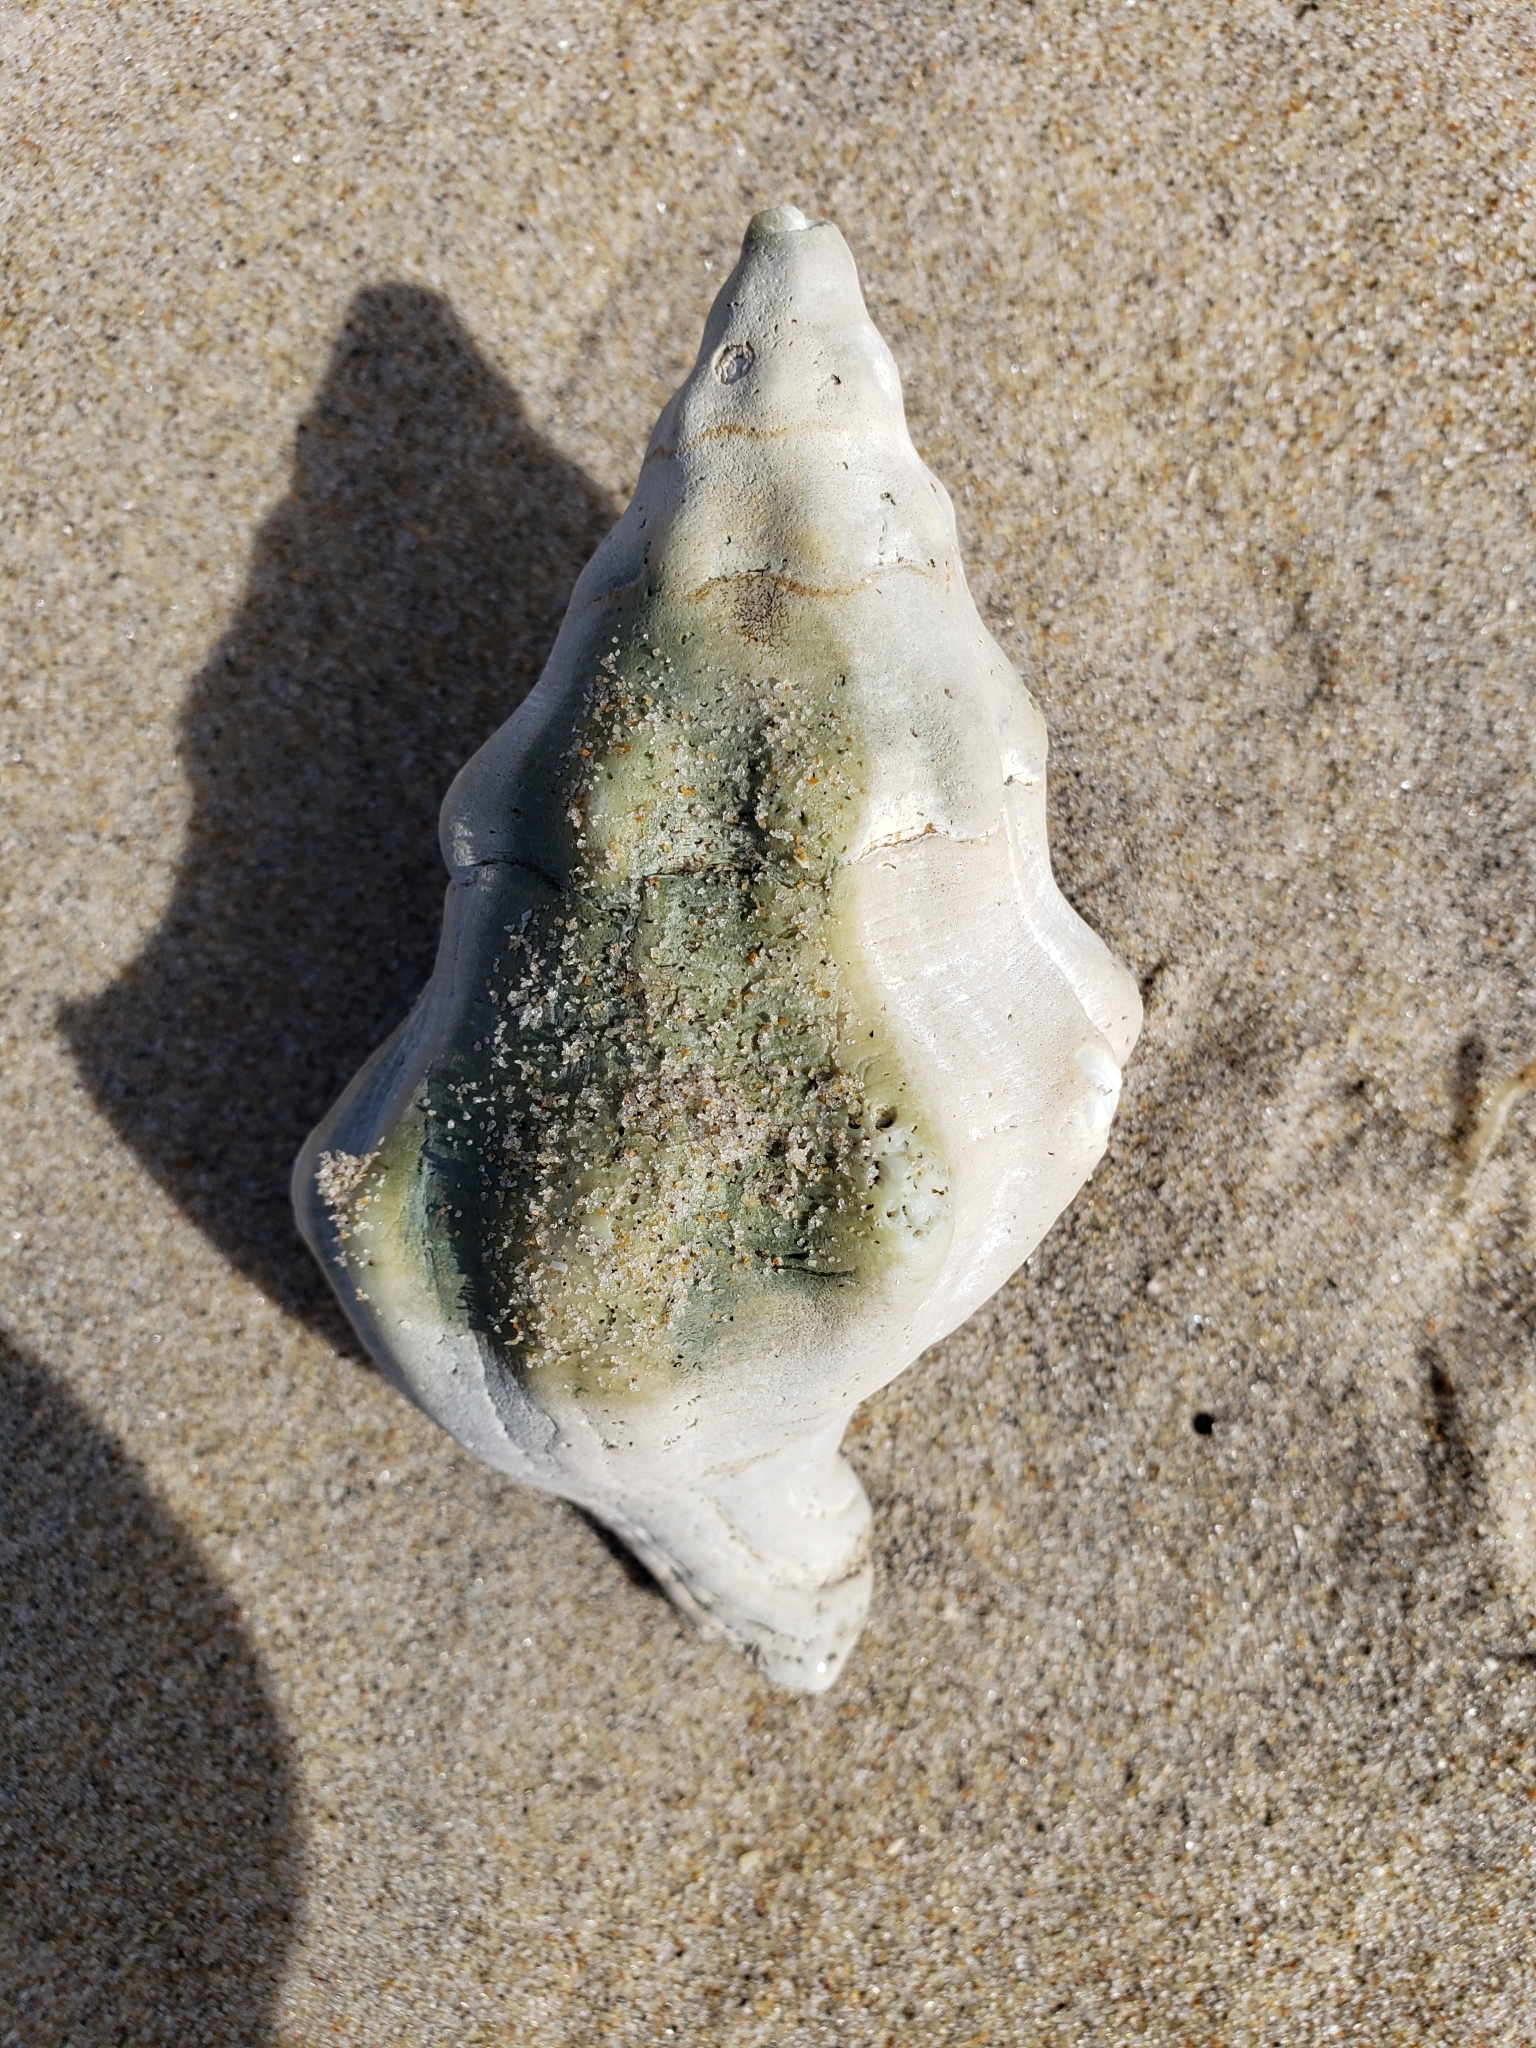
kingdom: Animalia
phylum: Mollusca
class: Gastropoda
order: Neogastropoda
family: Austrosiphonidae
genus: Kelletia
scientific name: Kelletia kelletii
